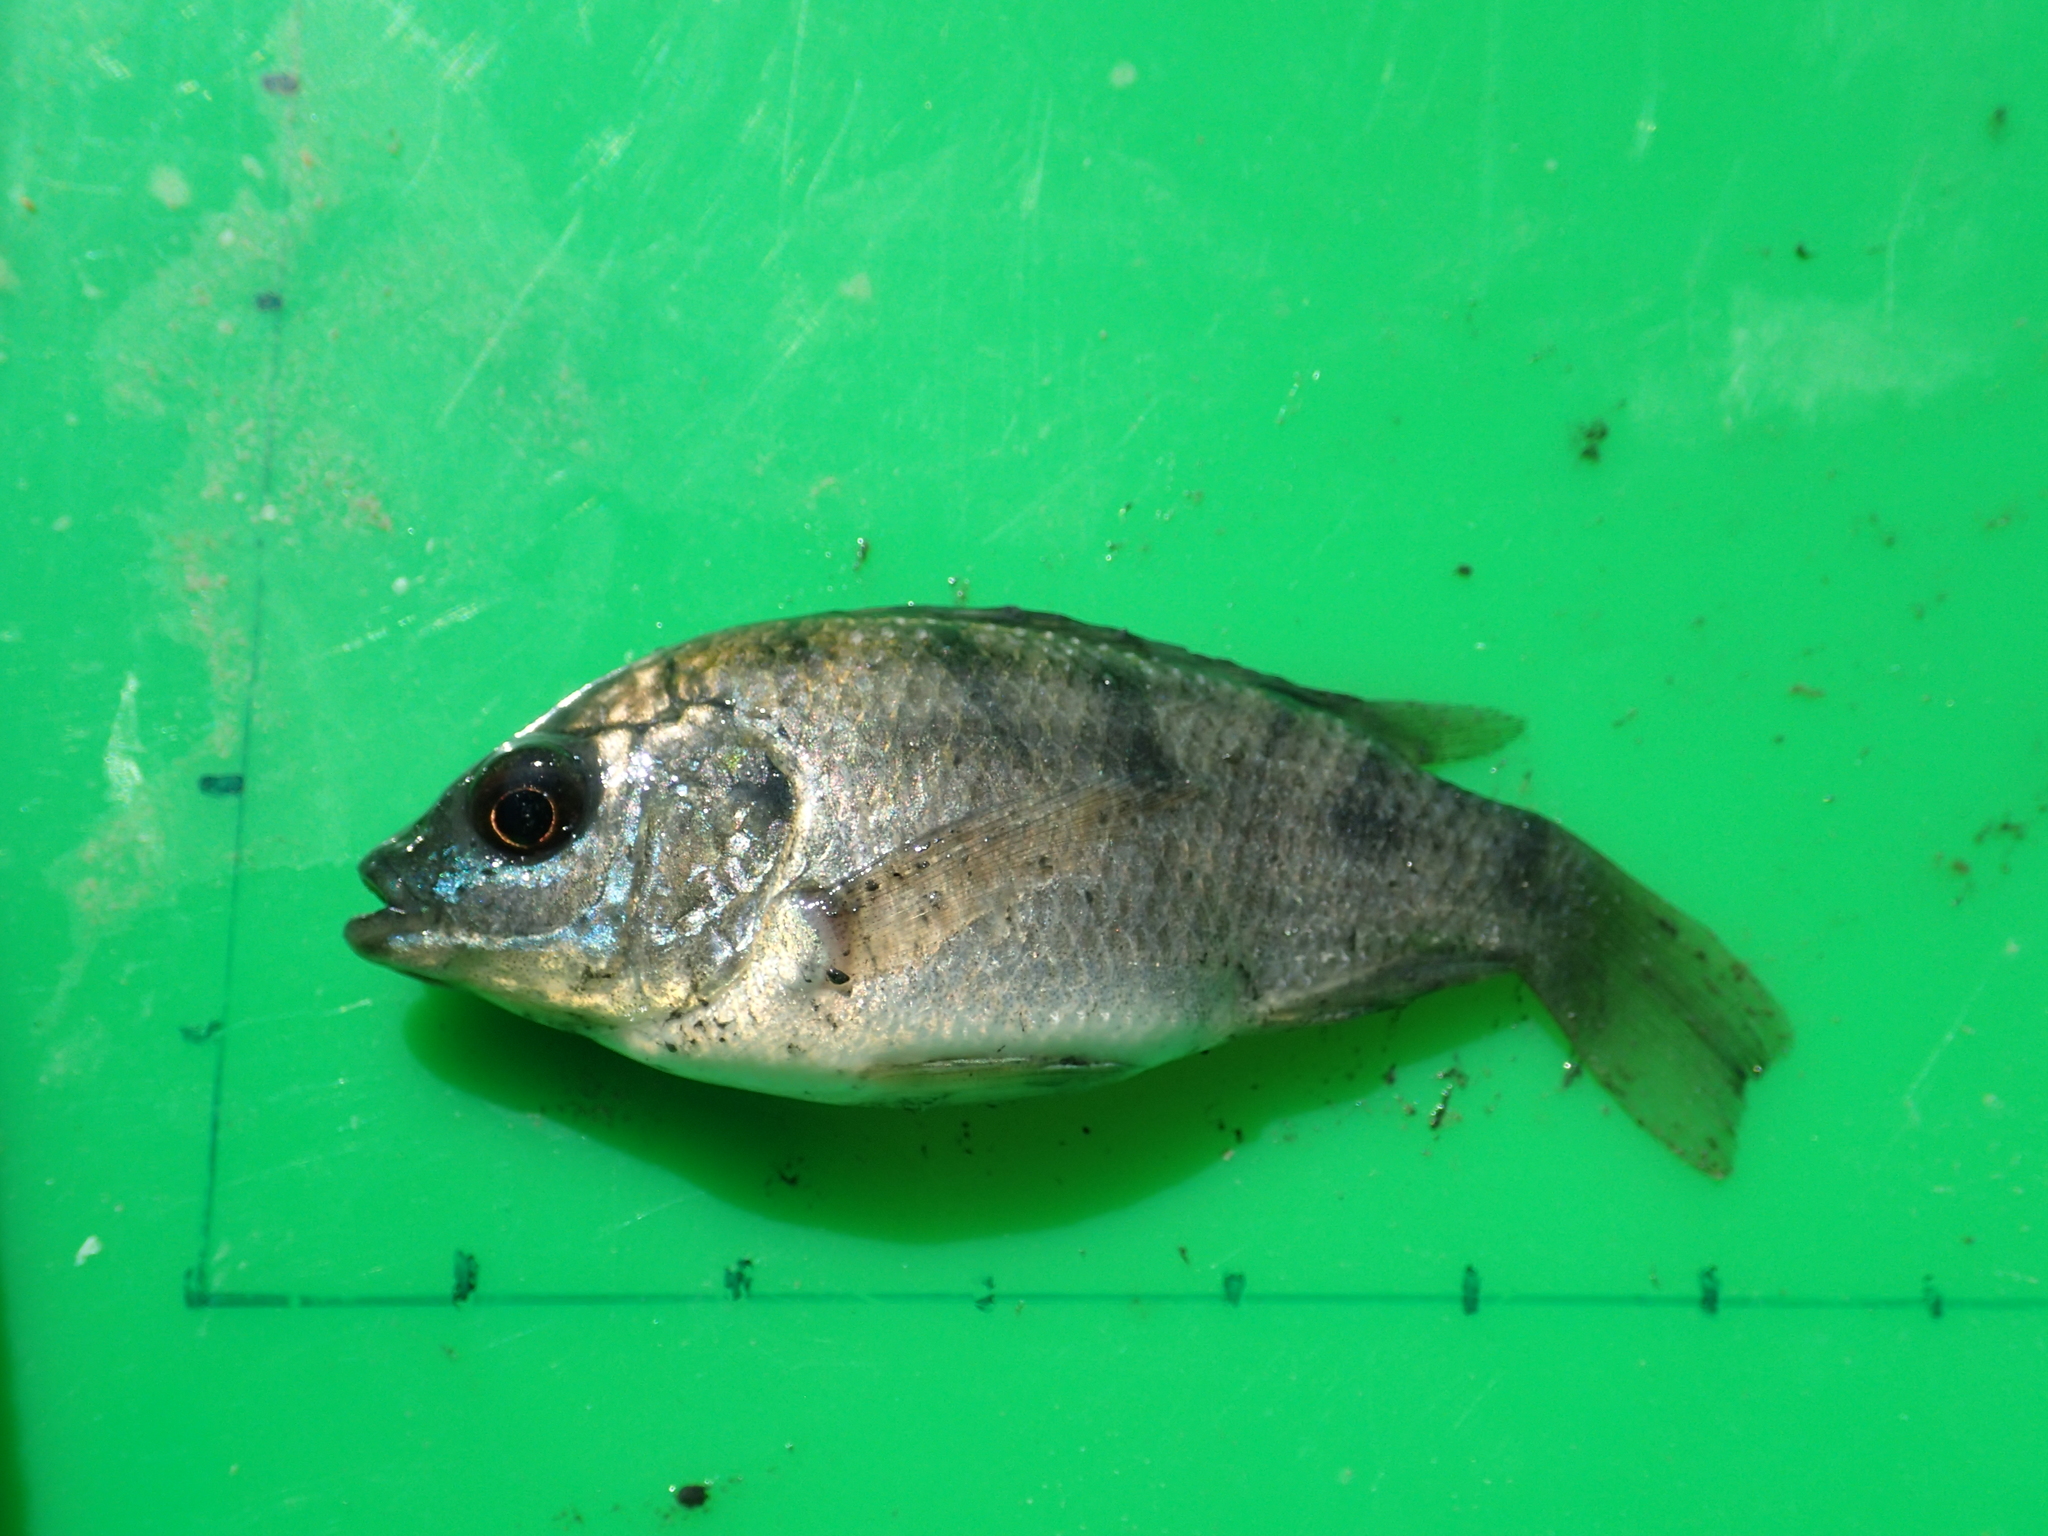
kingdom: Animalia
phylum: Chordata
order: Perciformes
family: Cichlidae
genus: Oreochromis
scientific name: Oreochromis mossambicus
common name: Mozambique tilapia
